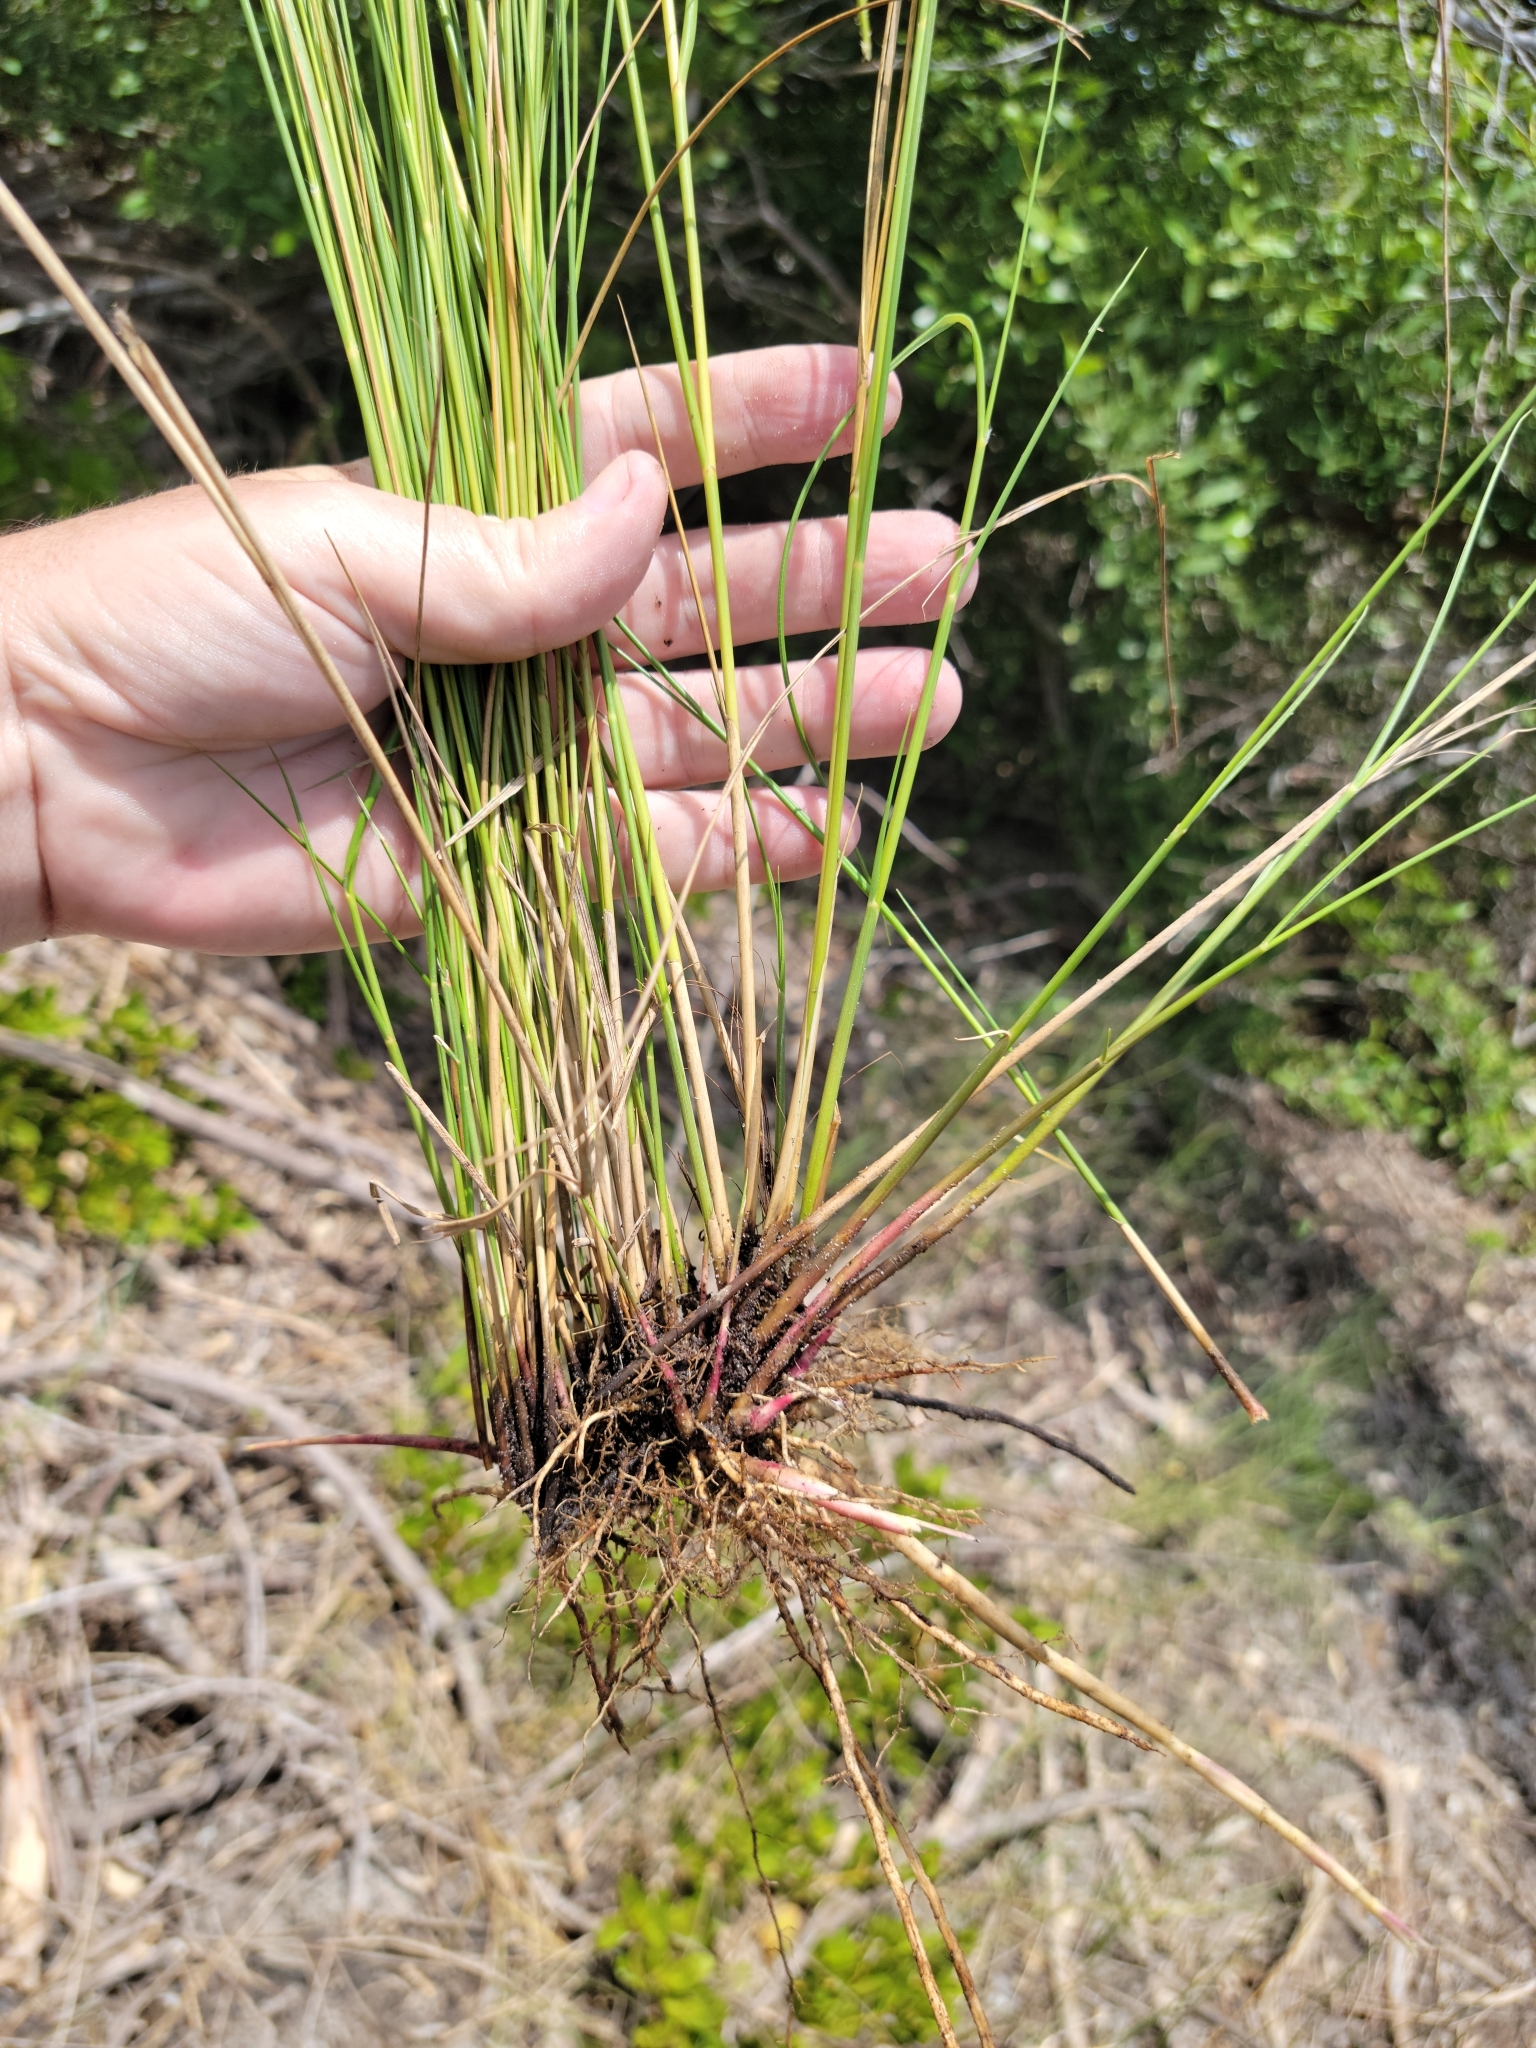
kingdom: Plantae
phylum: Tracheophyta
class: Liliopsida
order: Poales
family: Poaceae
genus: Sporobolus
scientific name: Sporobolus pumilus
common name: Highwater grass
